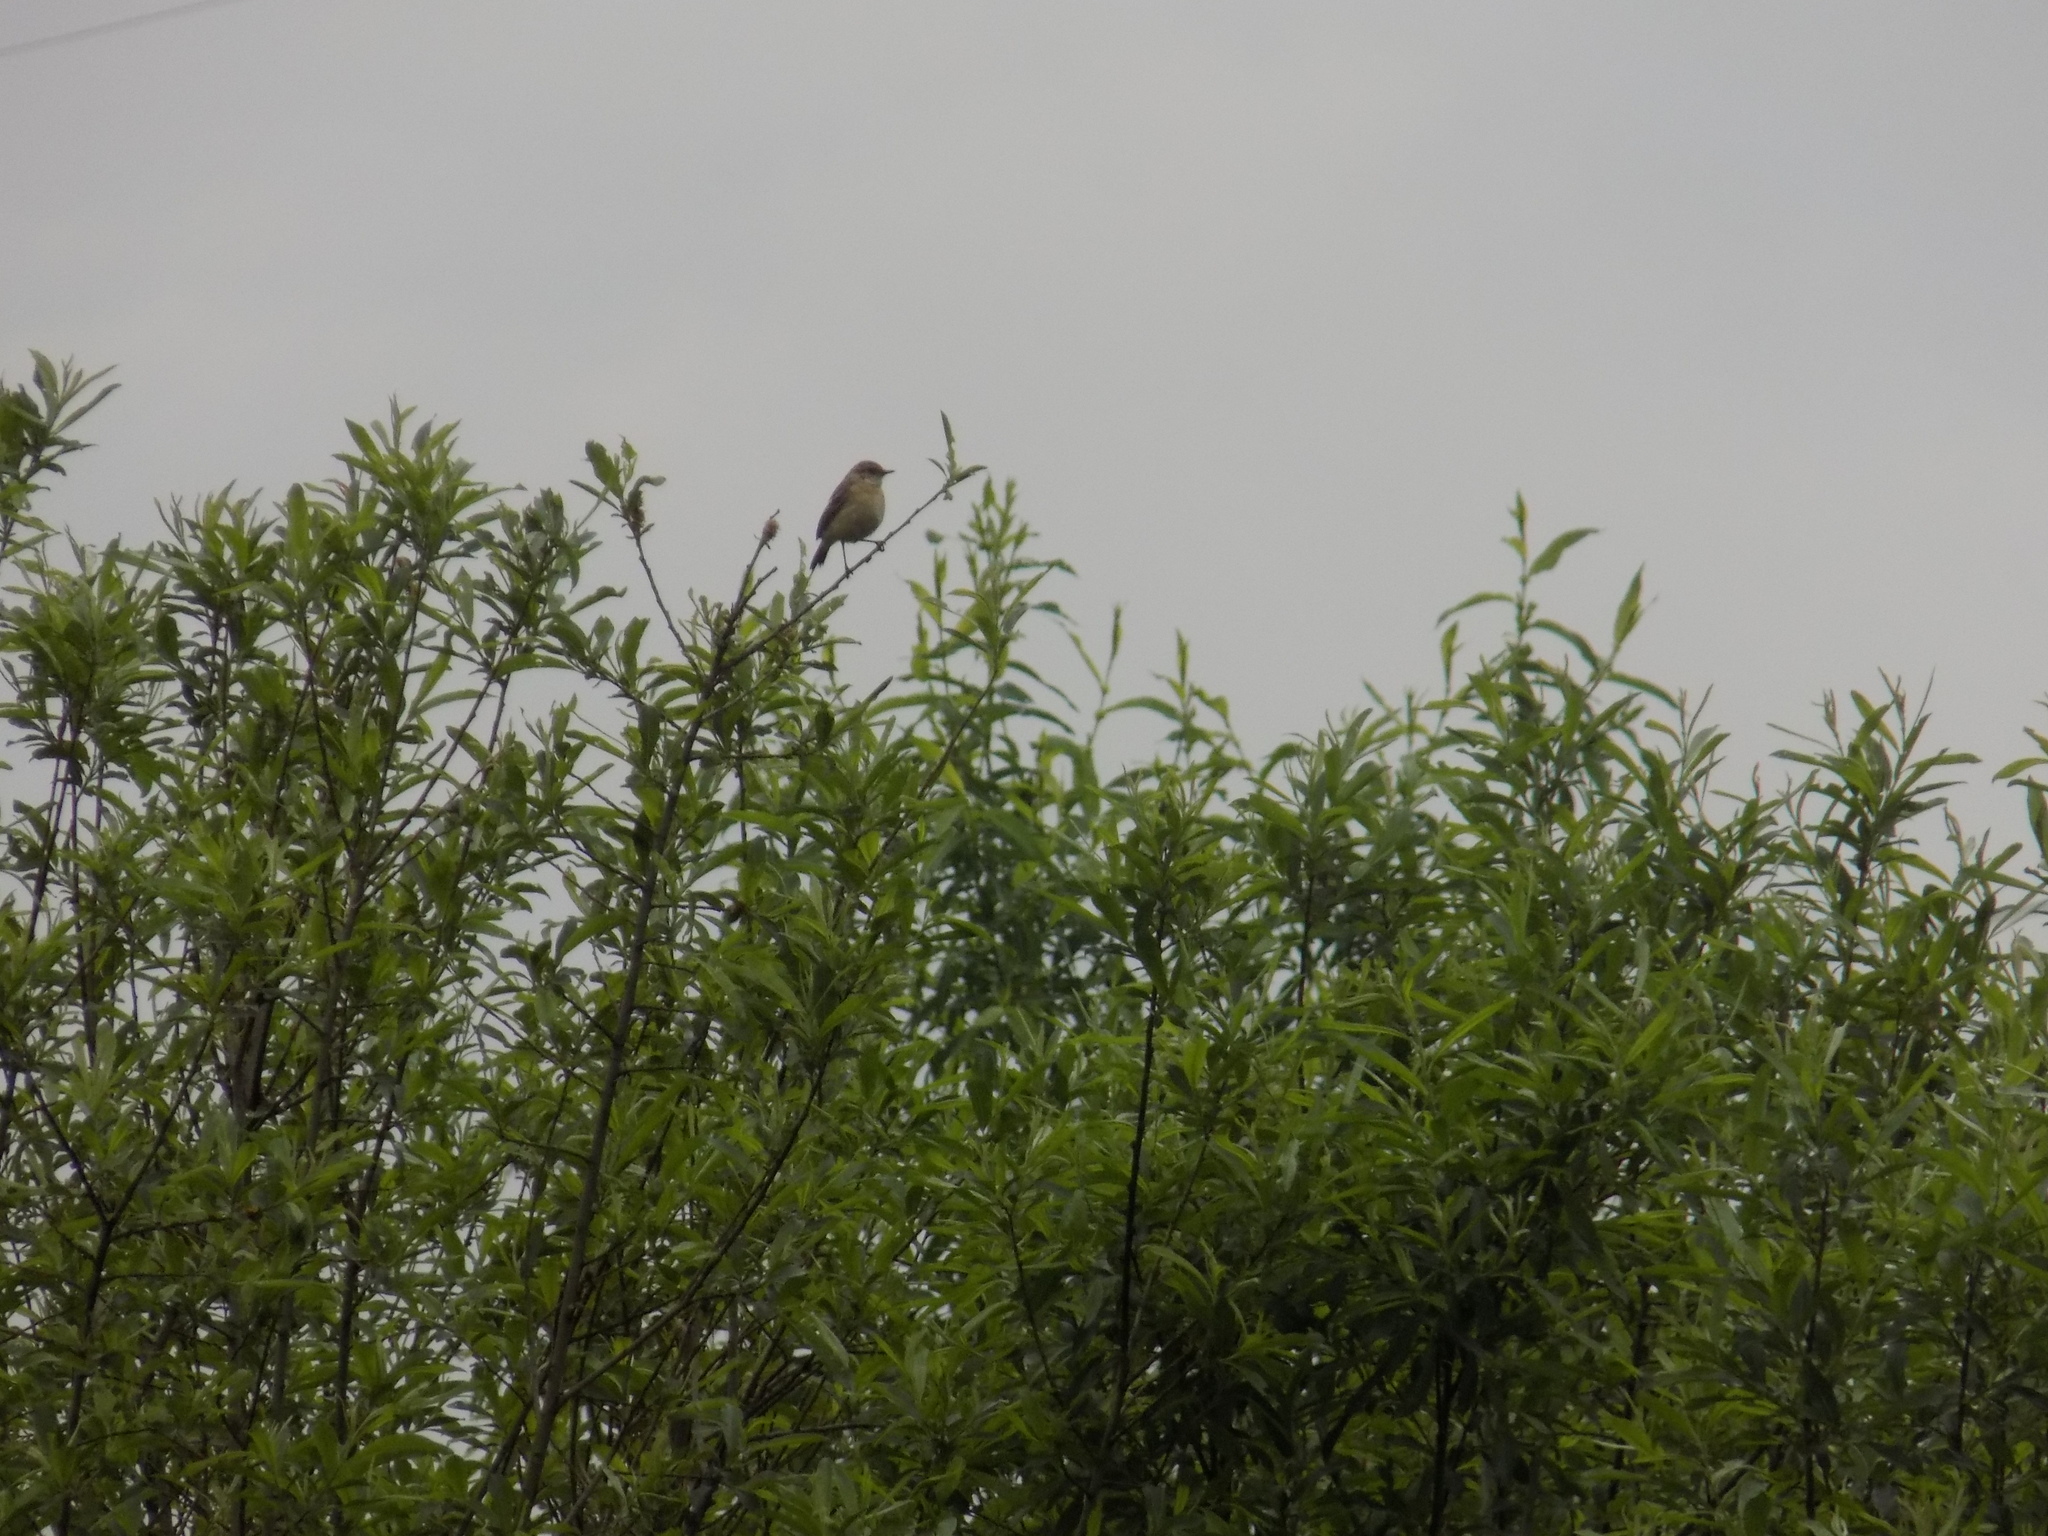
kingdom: Animalia
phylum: Chordata
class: Aves
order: Passeriformes
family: Muscicapidae
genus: Saxicola
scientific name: Saxicola maurus
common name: Siberian stonechat
